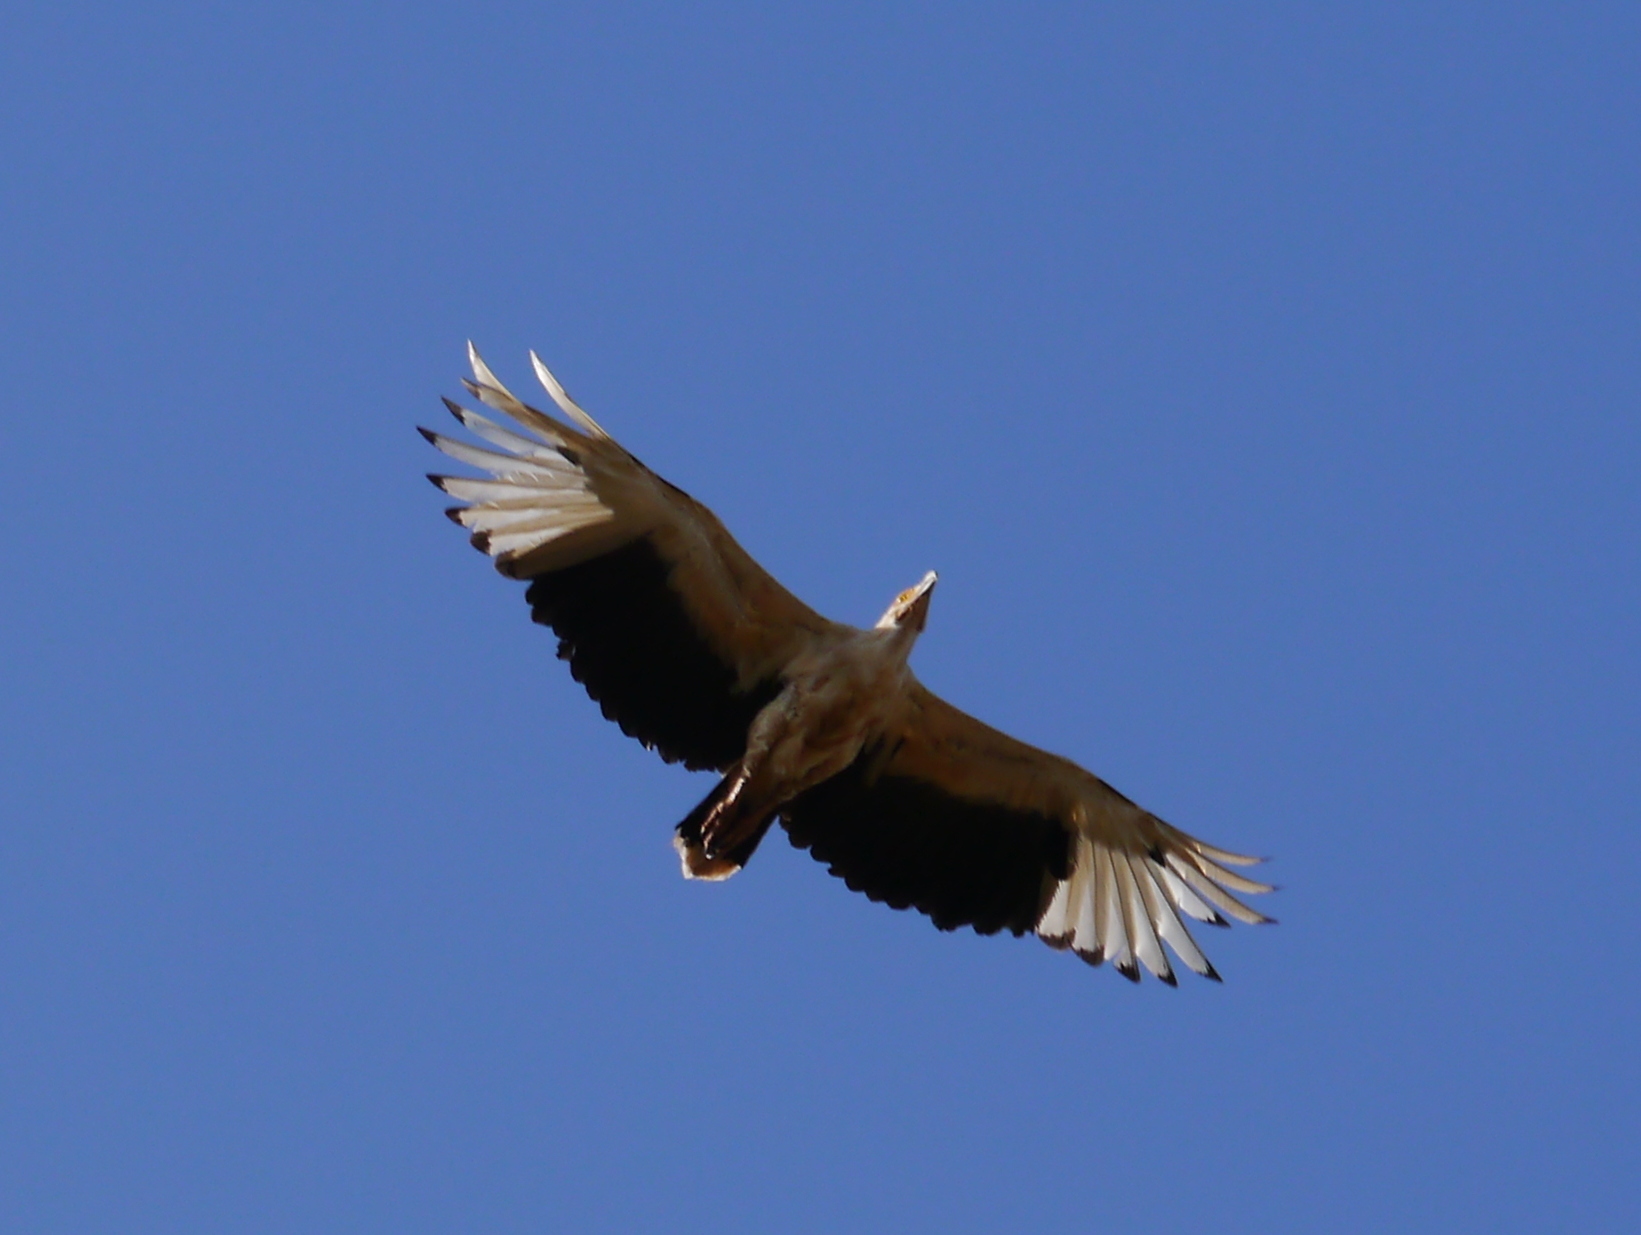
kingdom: Animalia
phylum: Chordata
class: Aves
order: Accipitriformes
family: Accipitridae
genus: Gypohierax
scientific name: Gypohierax angolensis
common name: Palm-nut vulture
